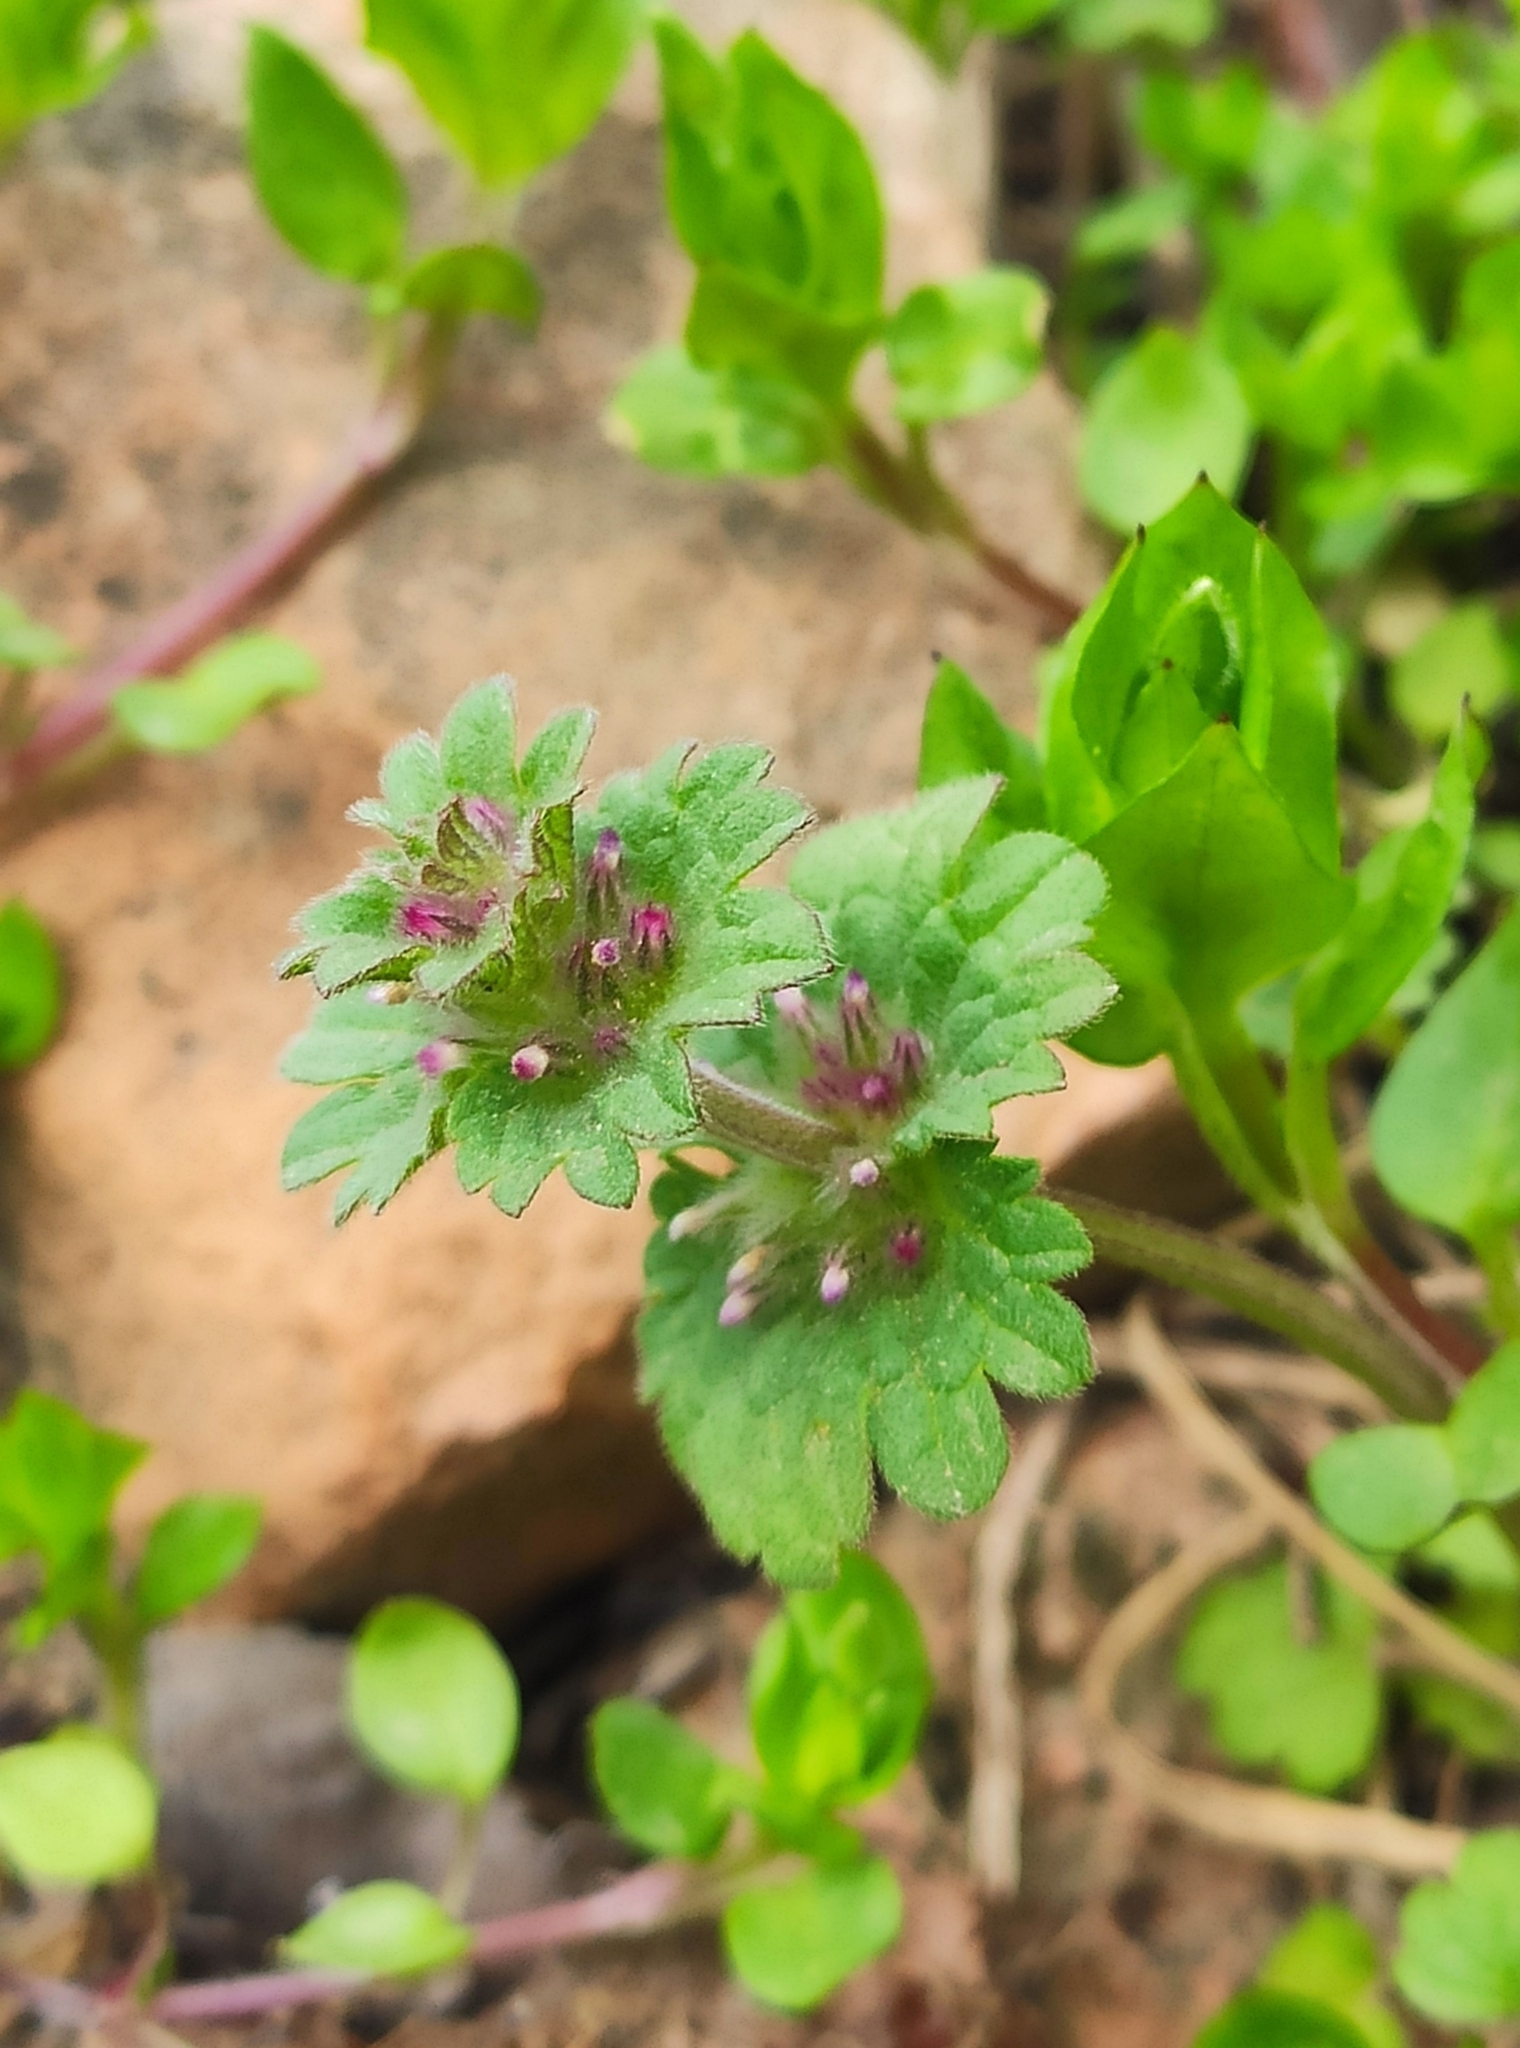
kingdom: Plantae
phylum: Tracheophyta
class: Magnoliopsida
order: Lamiales
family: Lamiaceae
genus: Lamium
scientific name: Lamium amplexicaule
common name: Henbit dead-nettle
